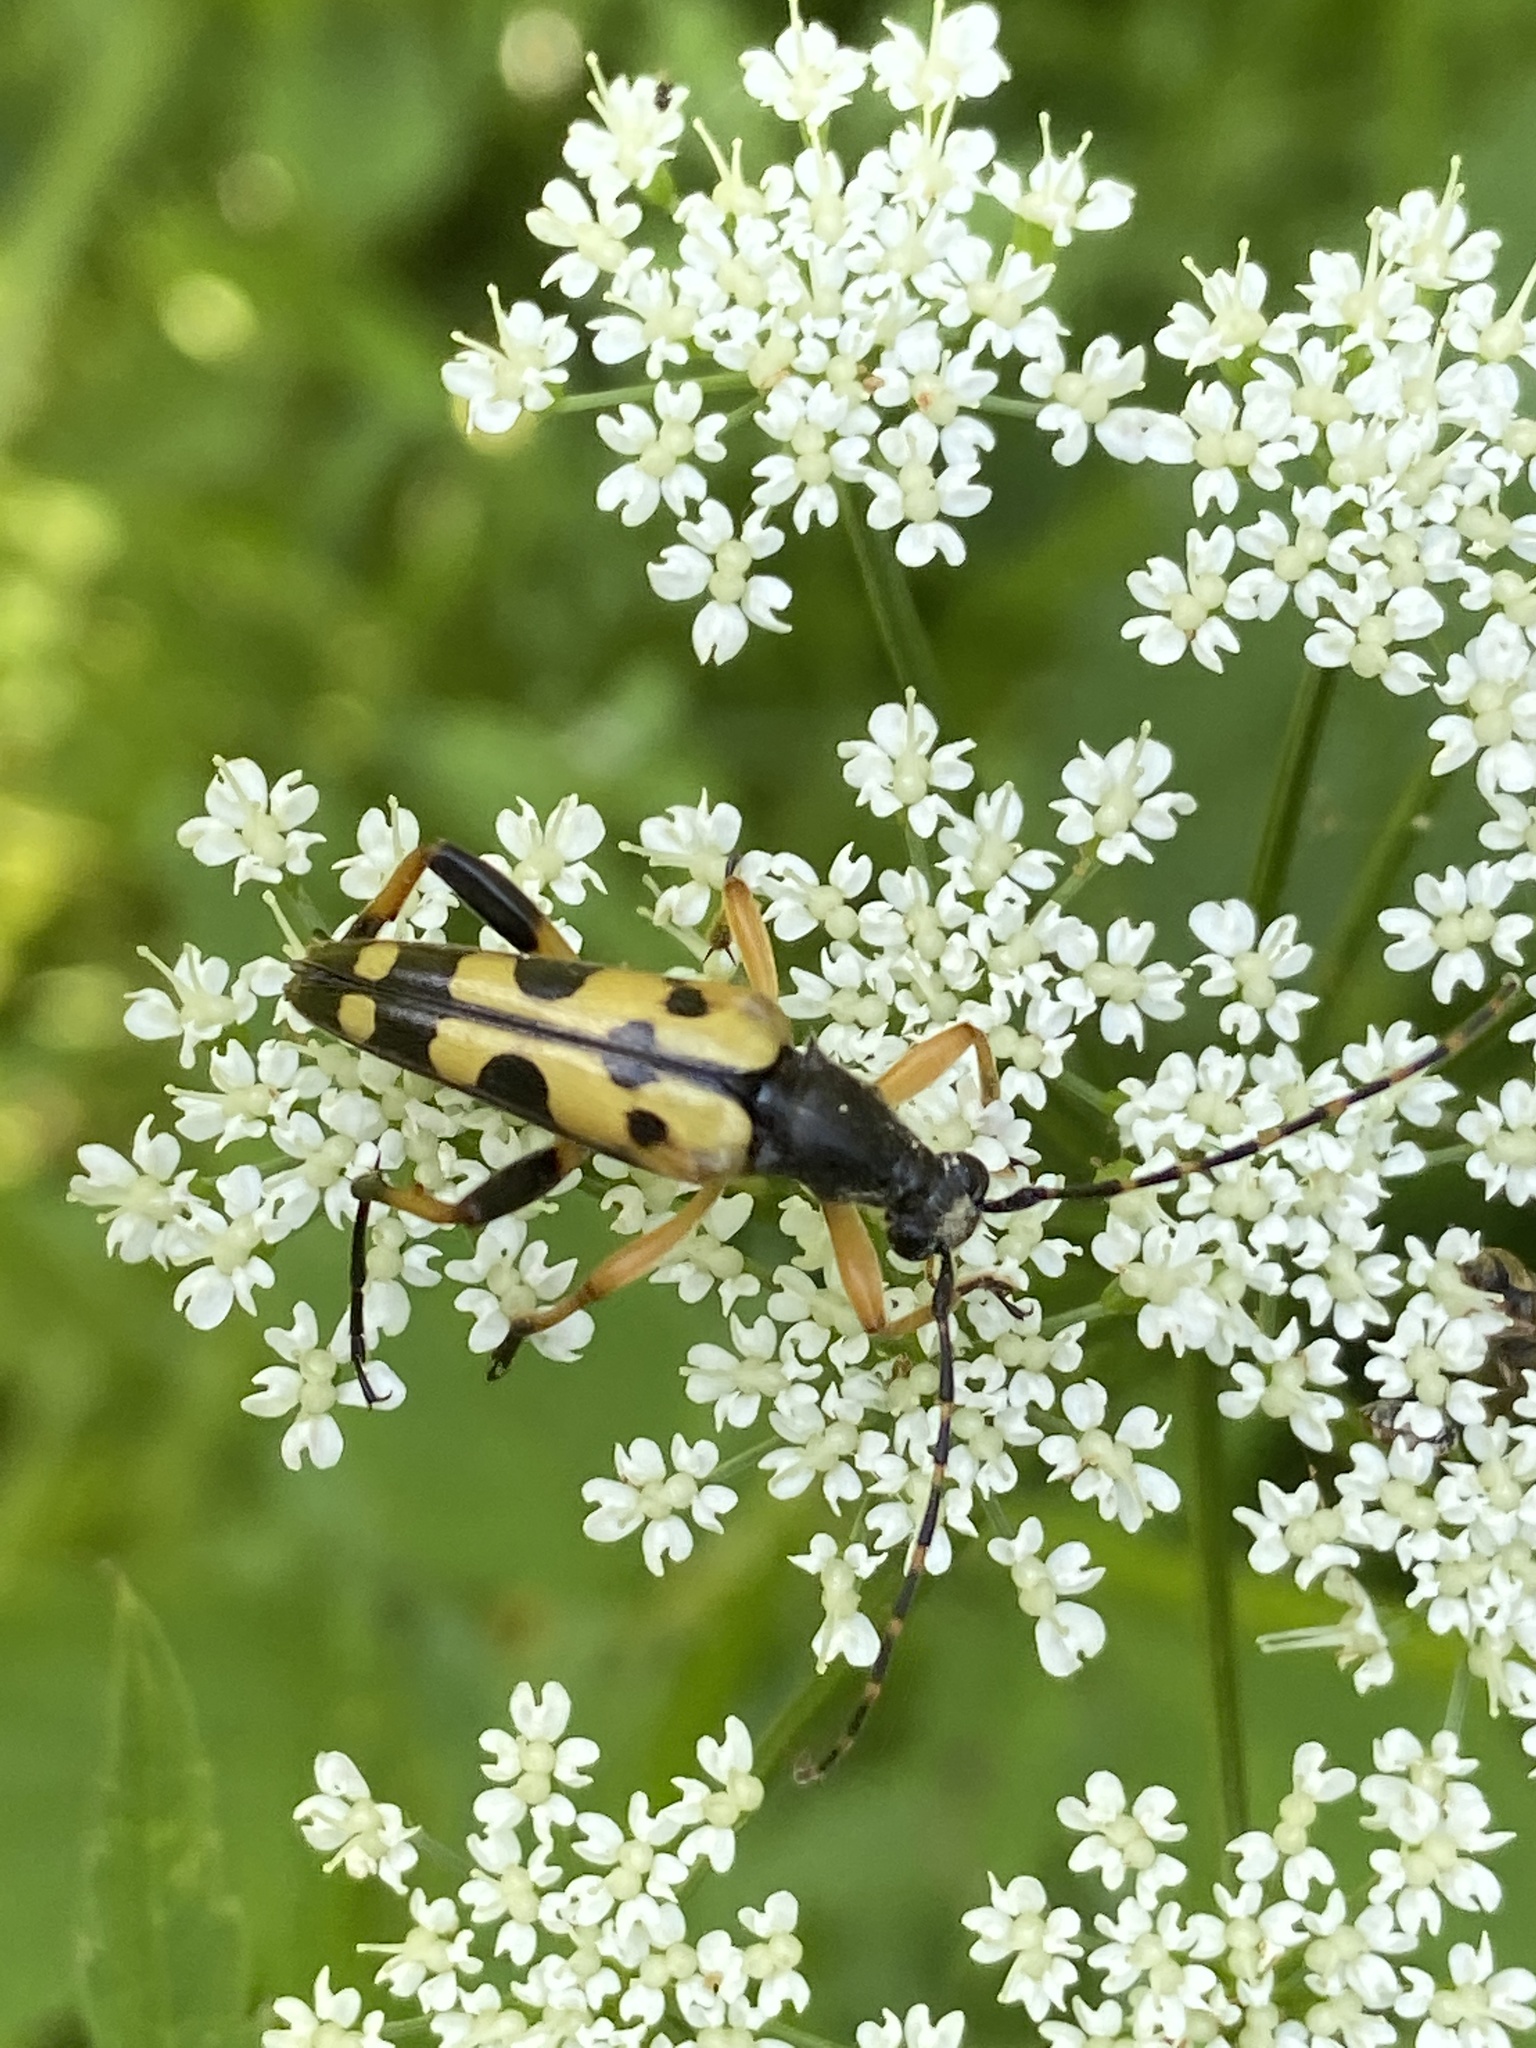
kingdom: Animalia
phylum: Arthropoda
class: Insecta
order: Coleoptera
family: Cerambycidae
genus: Rutpela
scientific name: Rutpela maculata
